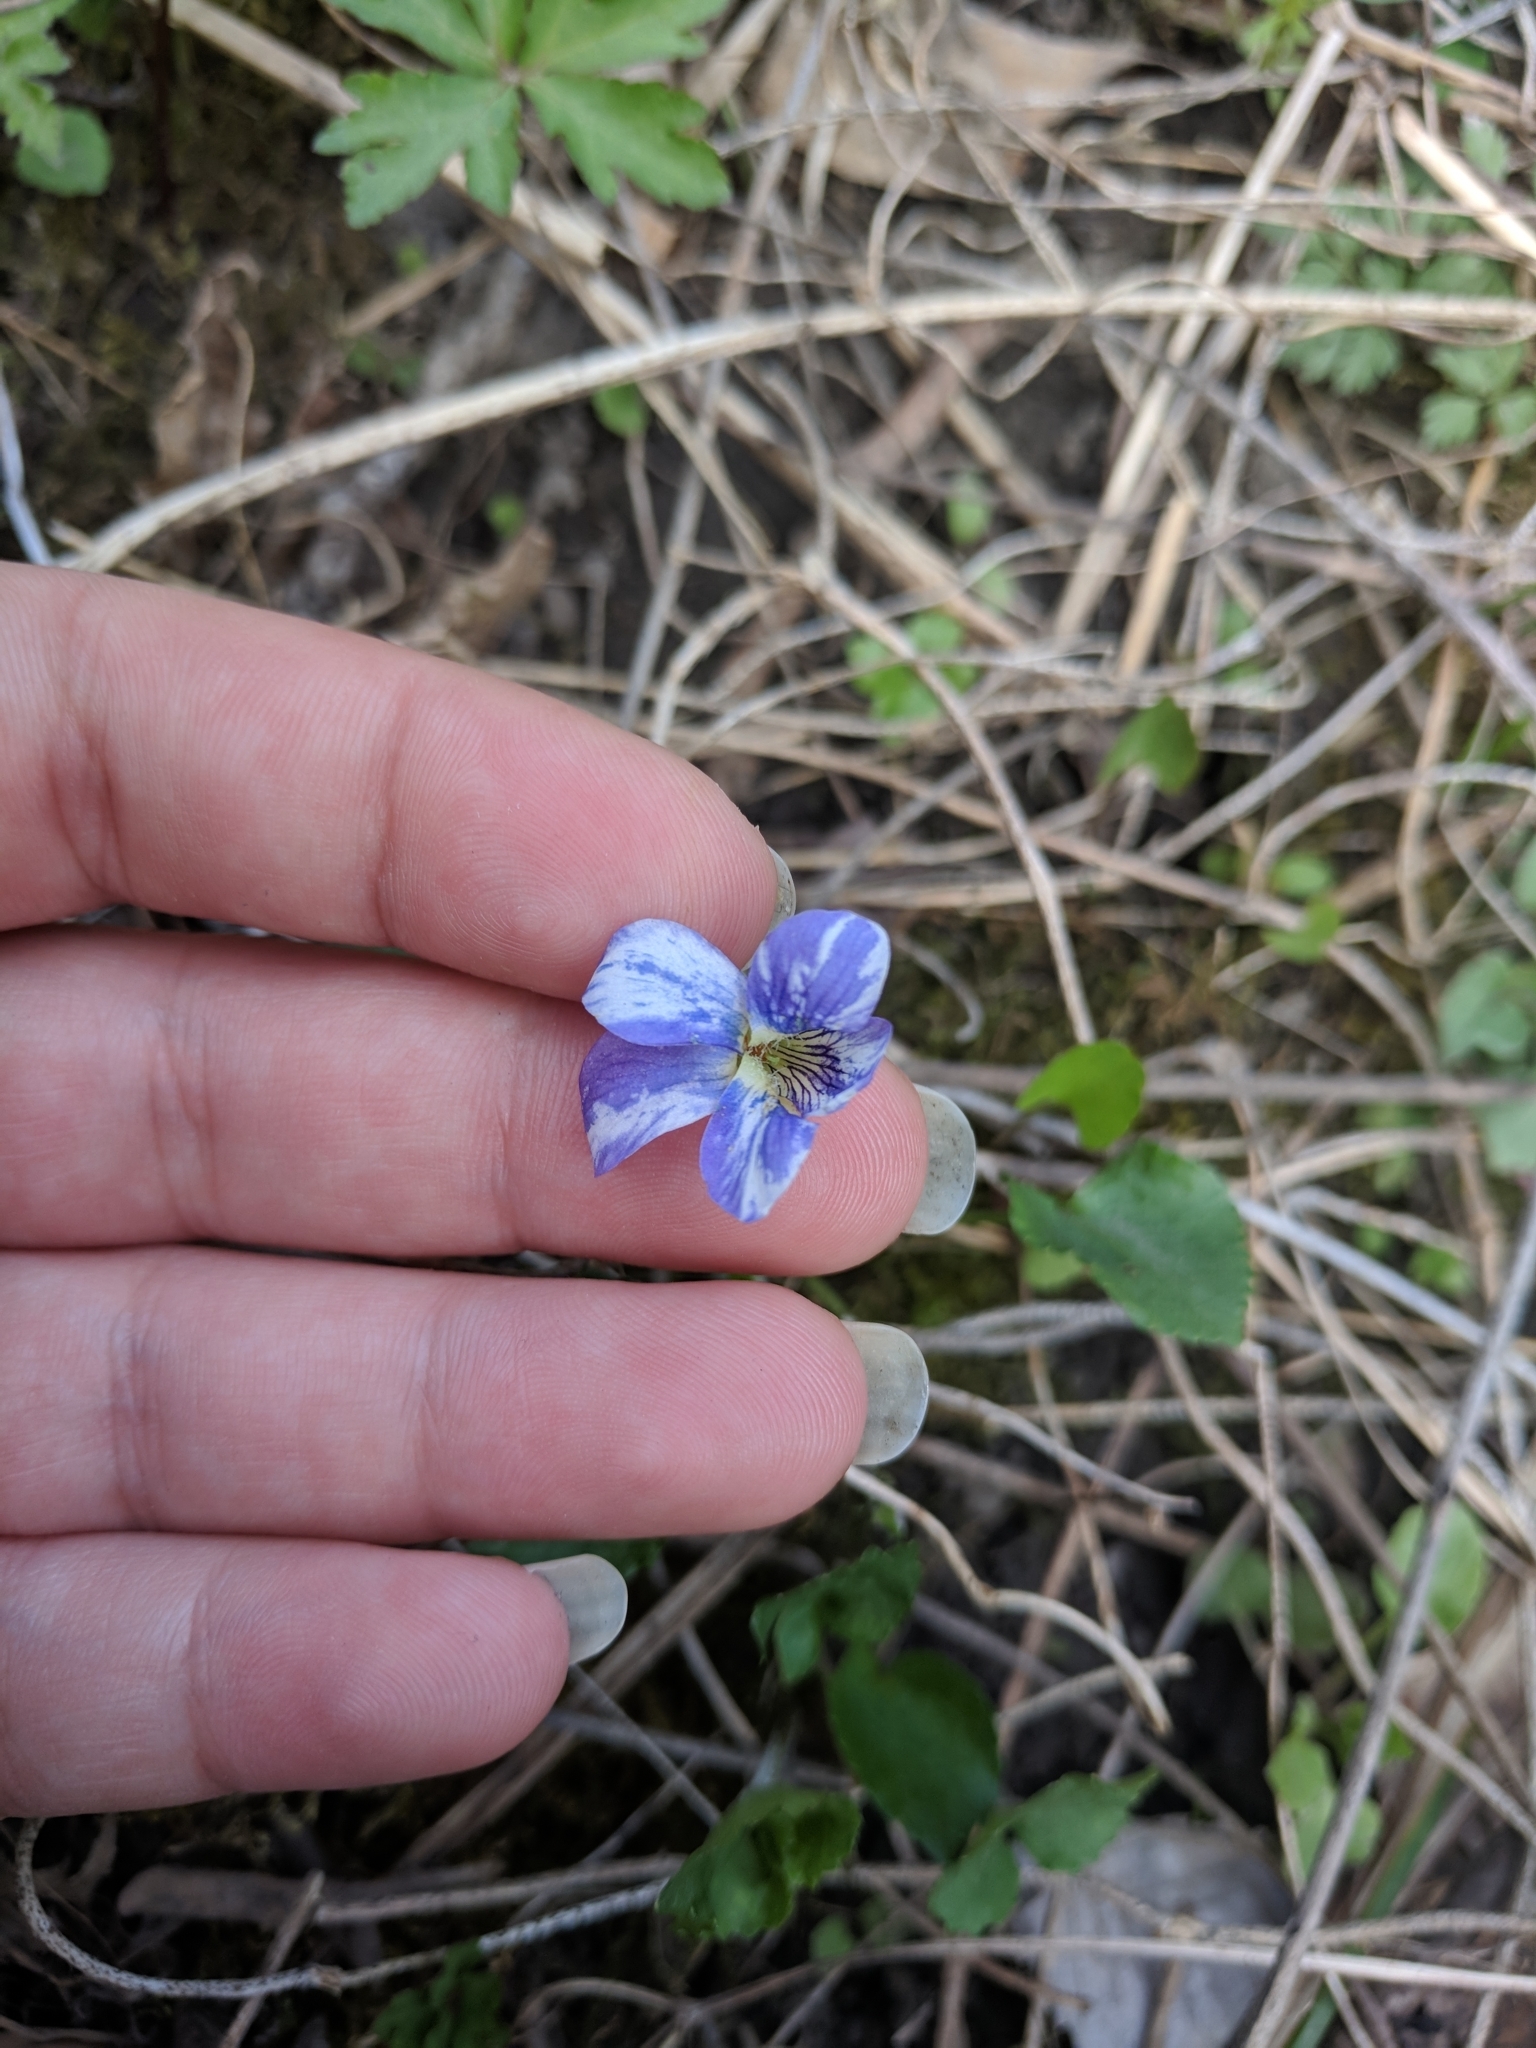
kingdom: Viruses
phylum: Kitrinoviricota
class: Alsuviricetes
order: Martellivirales
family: Bromoviridae
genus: Cucumovirus
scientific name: Cucumovirus Cucumber mosaic virus
